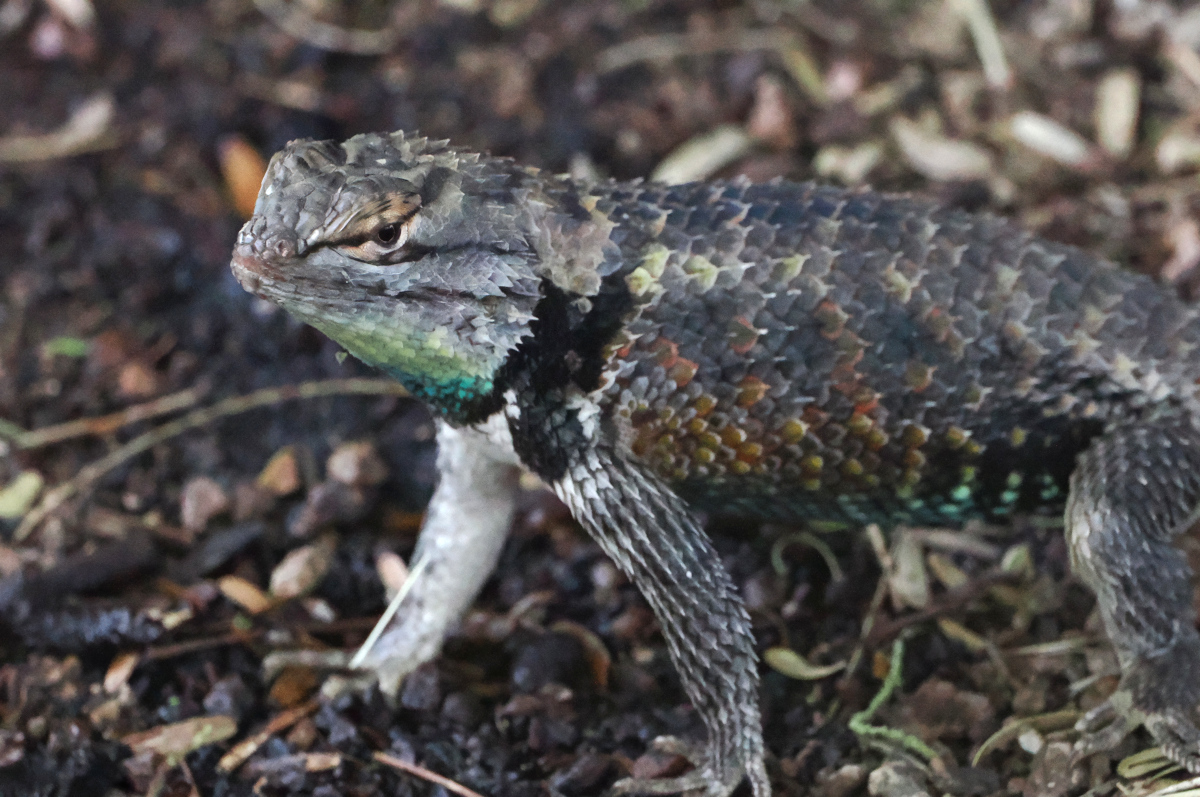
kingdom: Animalia
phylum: Chordata
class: Squamata
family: Phrynosomatidae
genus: Sceloporus
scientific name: Sceloporus magister
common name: Desert spiny lizard
